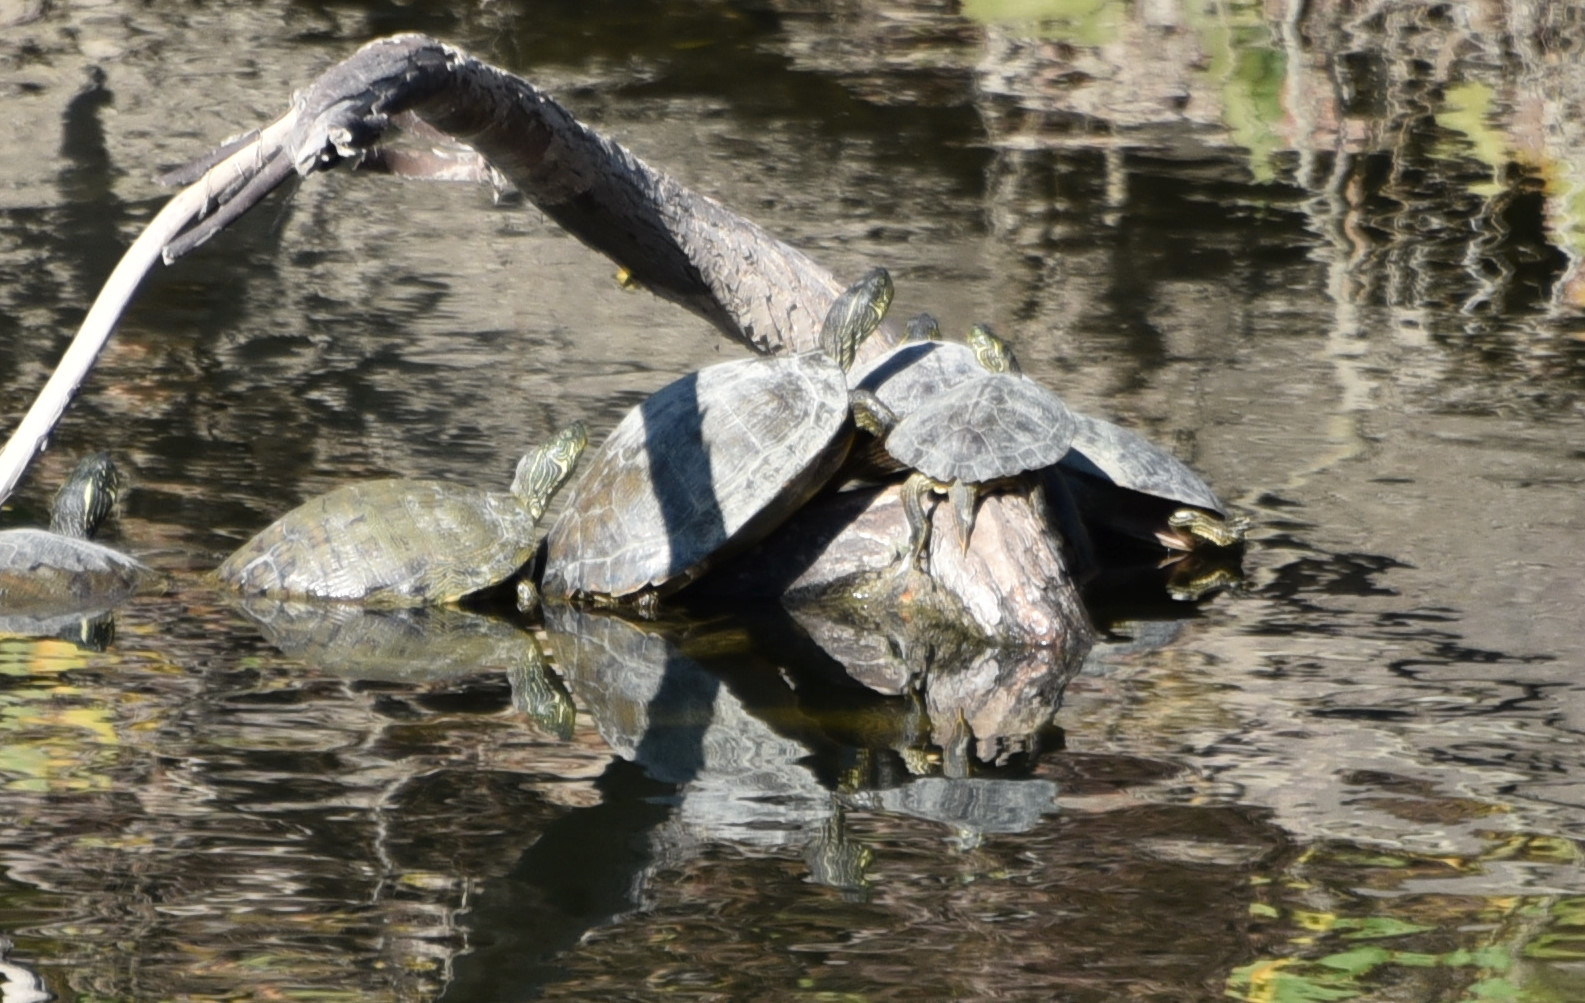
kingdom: Animalia
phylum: Chordata
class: Testudines
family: Emydidae
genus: Pseudemys
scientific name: Pseudemys texana
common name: Texas river cooter
